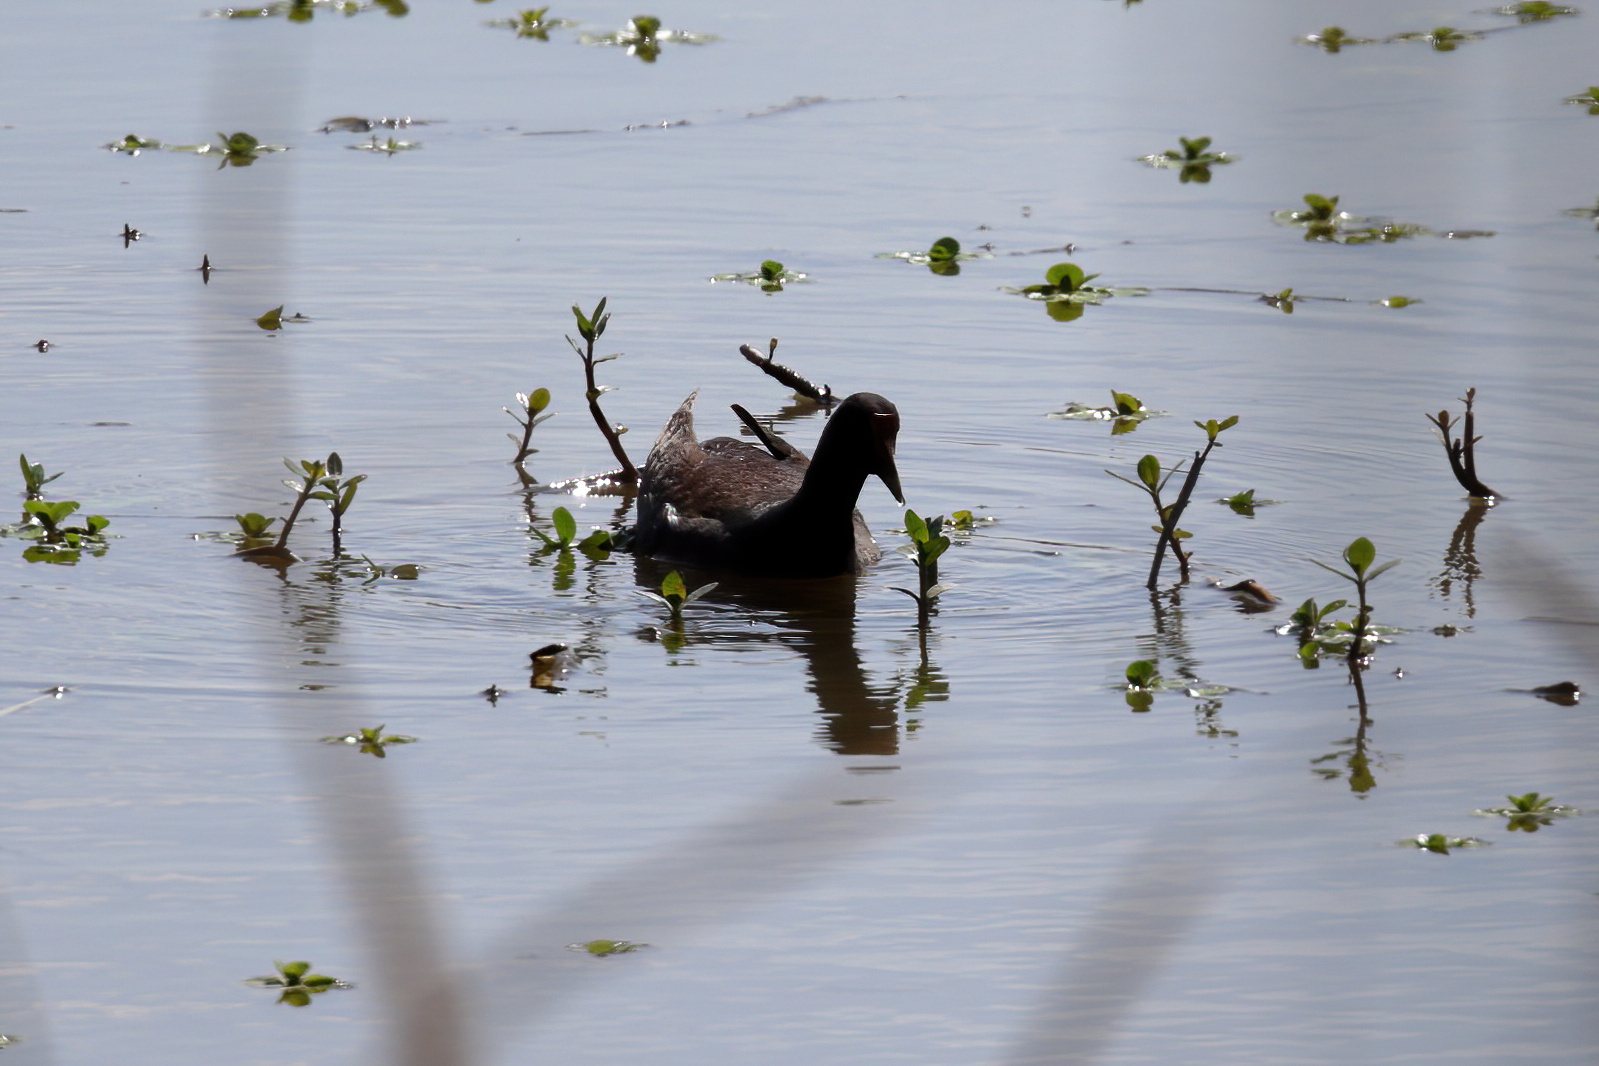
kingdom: Animalia
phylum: Chordata
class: Aves
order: Gruiformes
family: Rallidae
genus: Gallinula
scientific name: Gallinula chloropus
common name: Common moorhen
